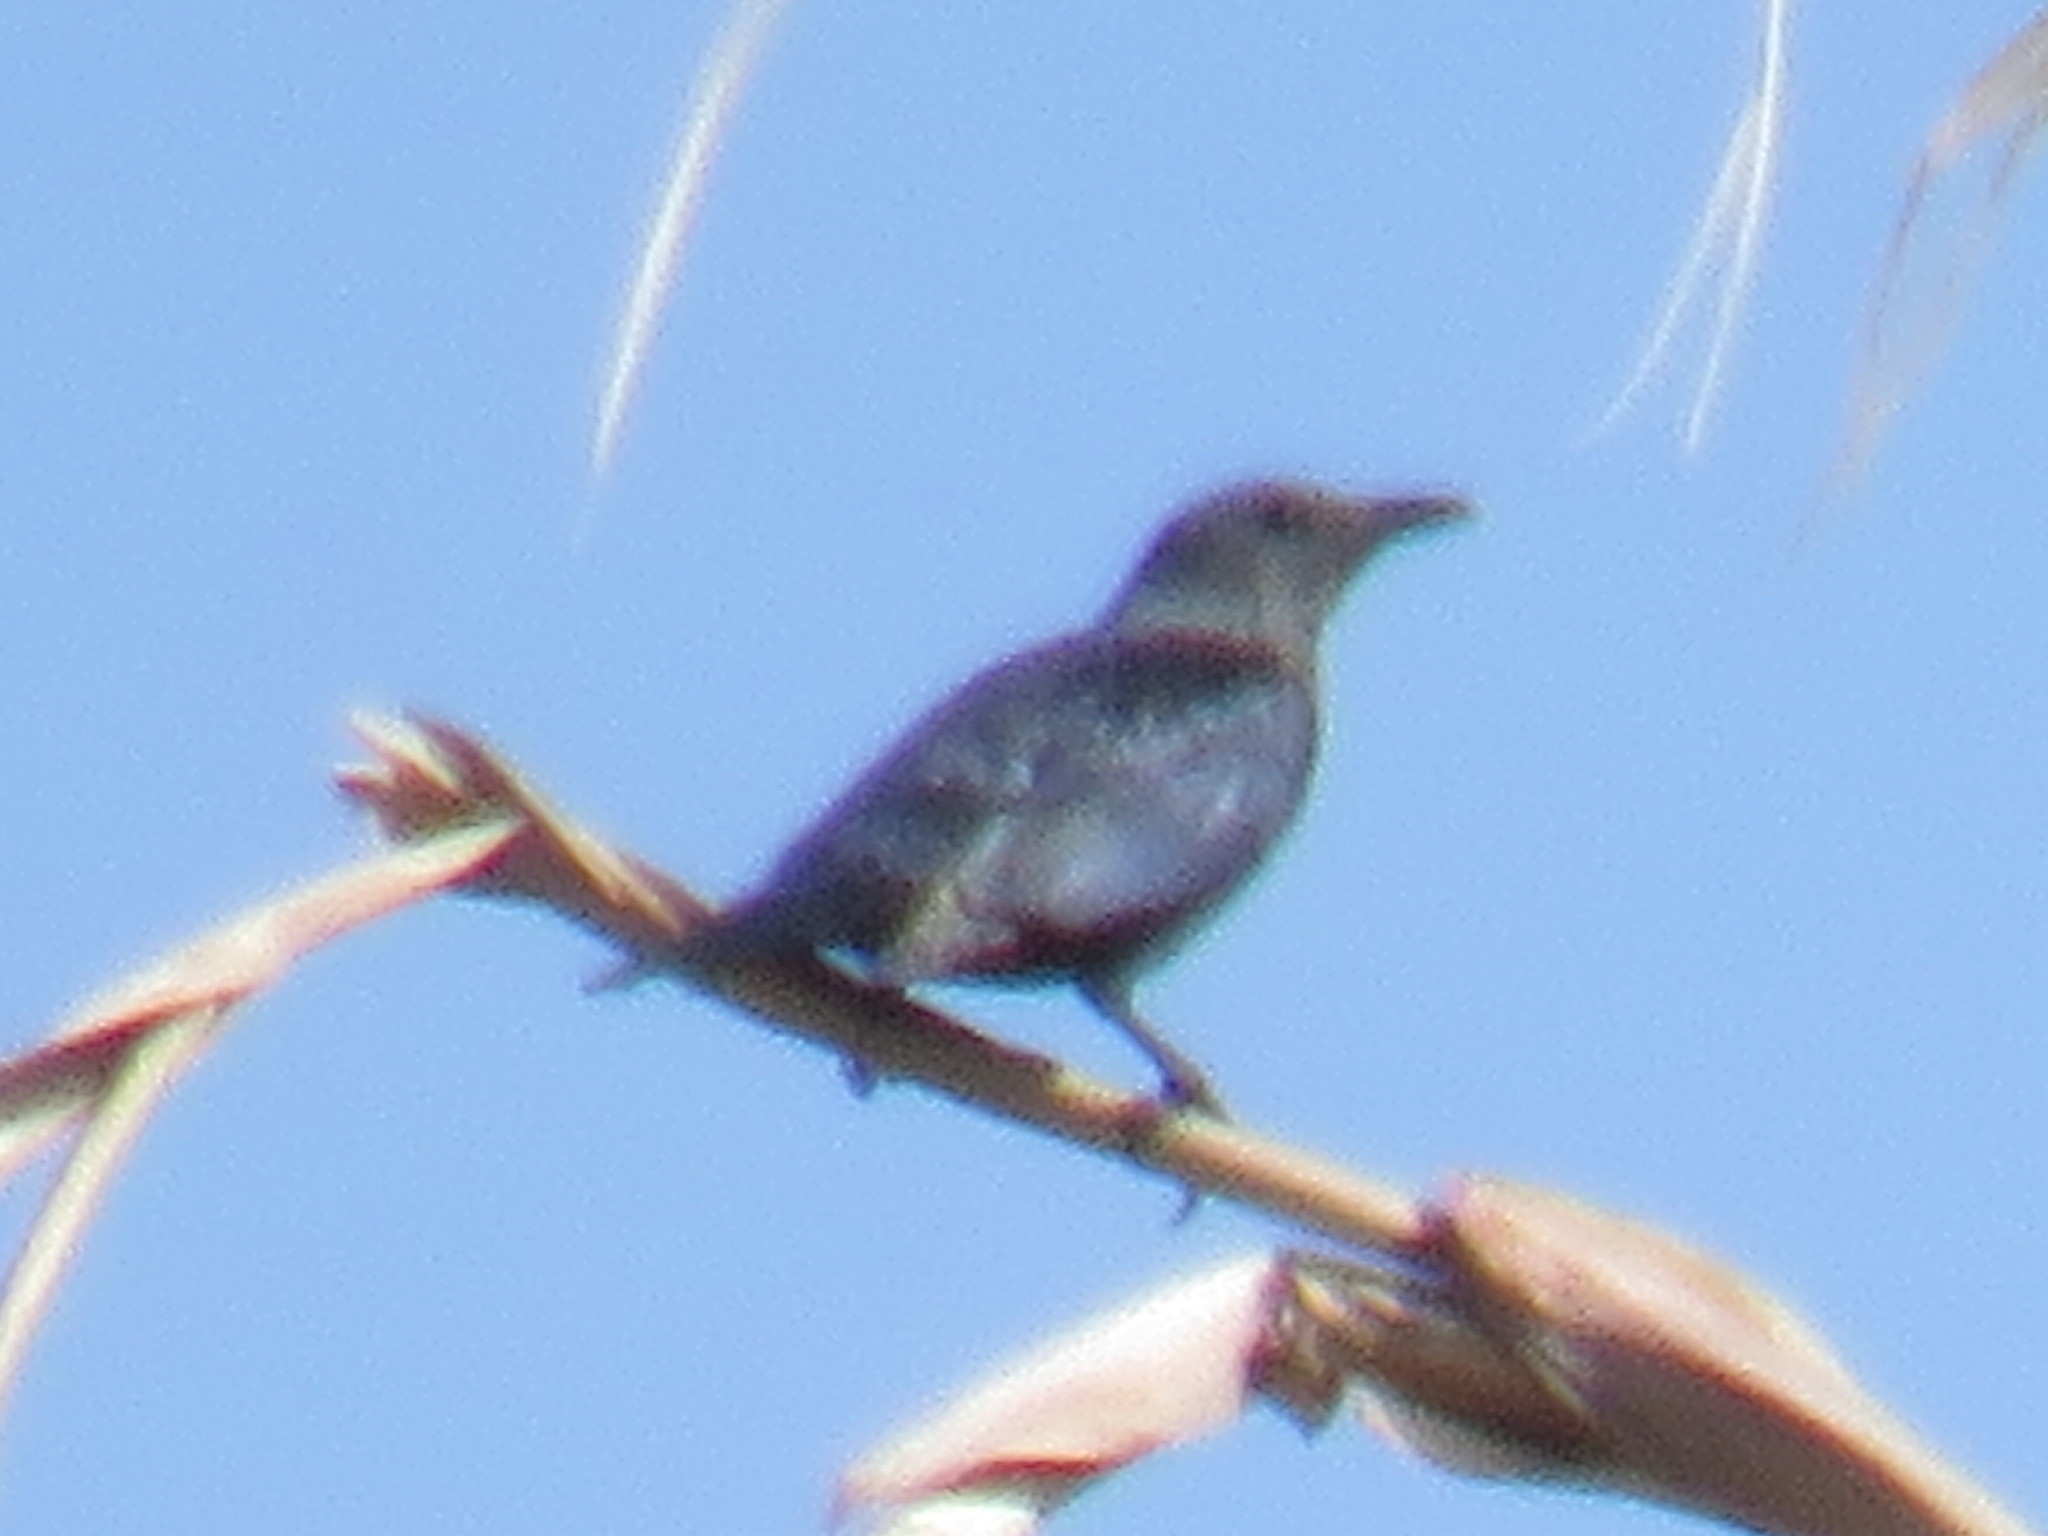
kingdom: Animalia
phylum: Chordata
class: Aves
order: Passeriformes
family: Sturnidae
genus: Onychognathus
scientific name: Onychognathus morio
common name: Red-winged starling
